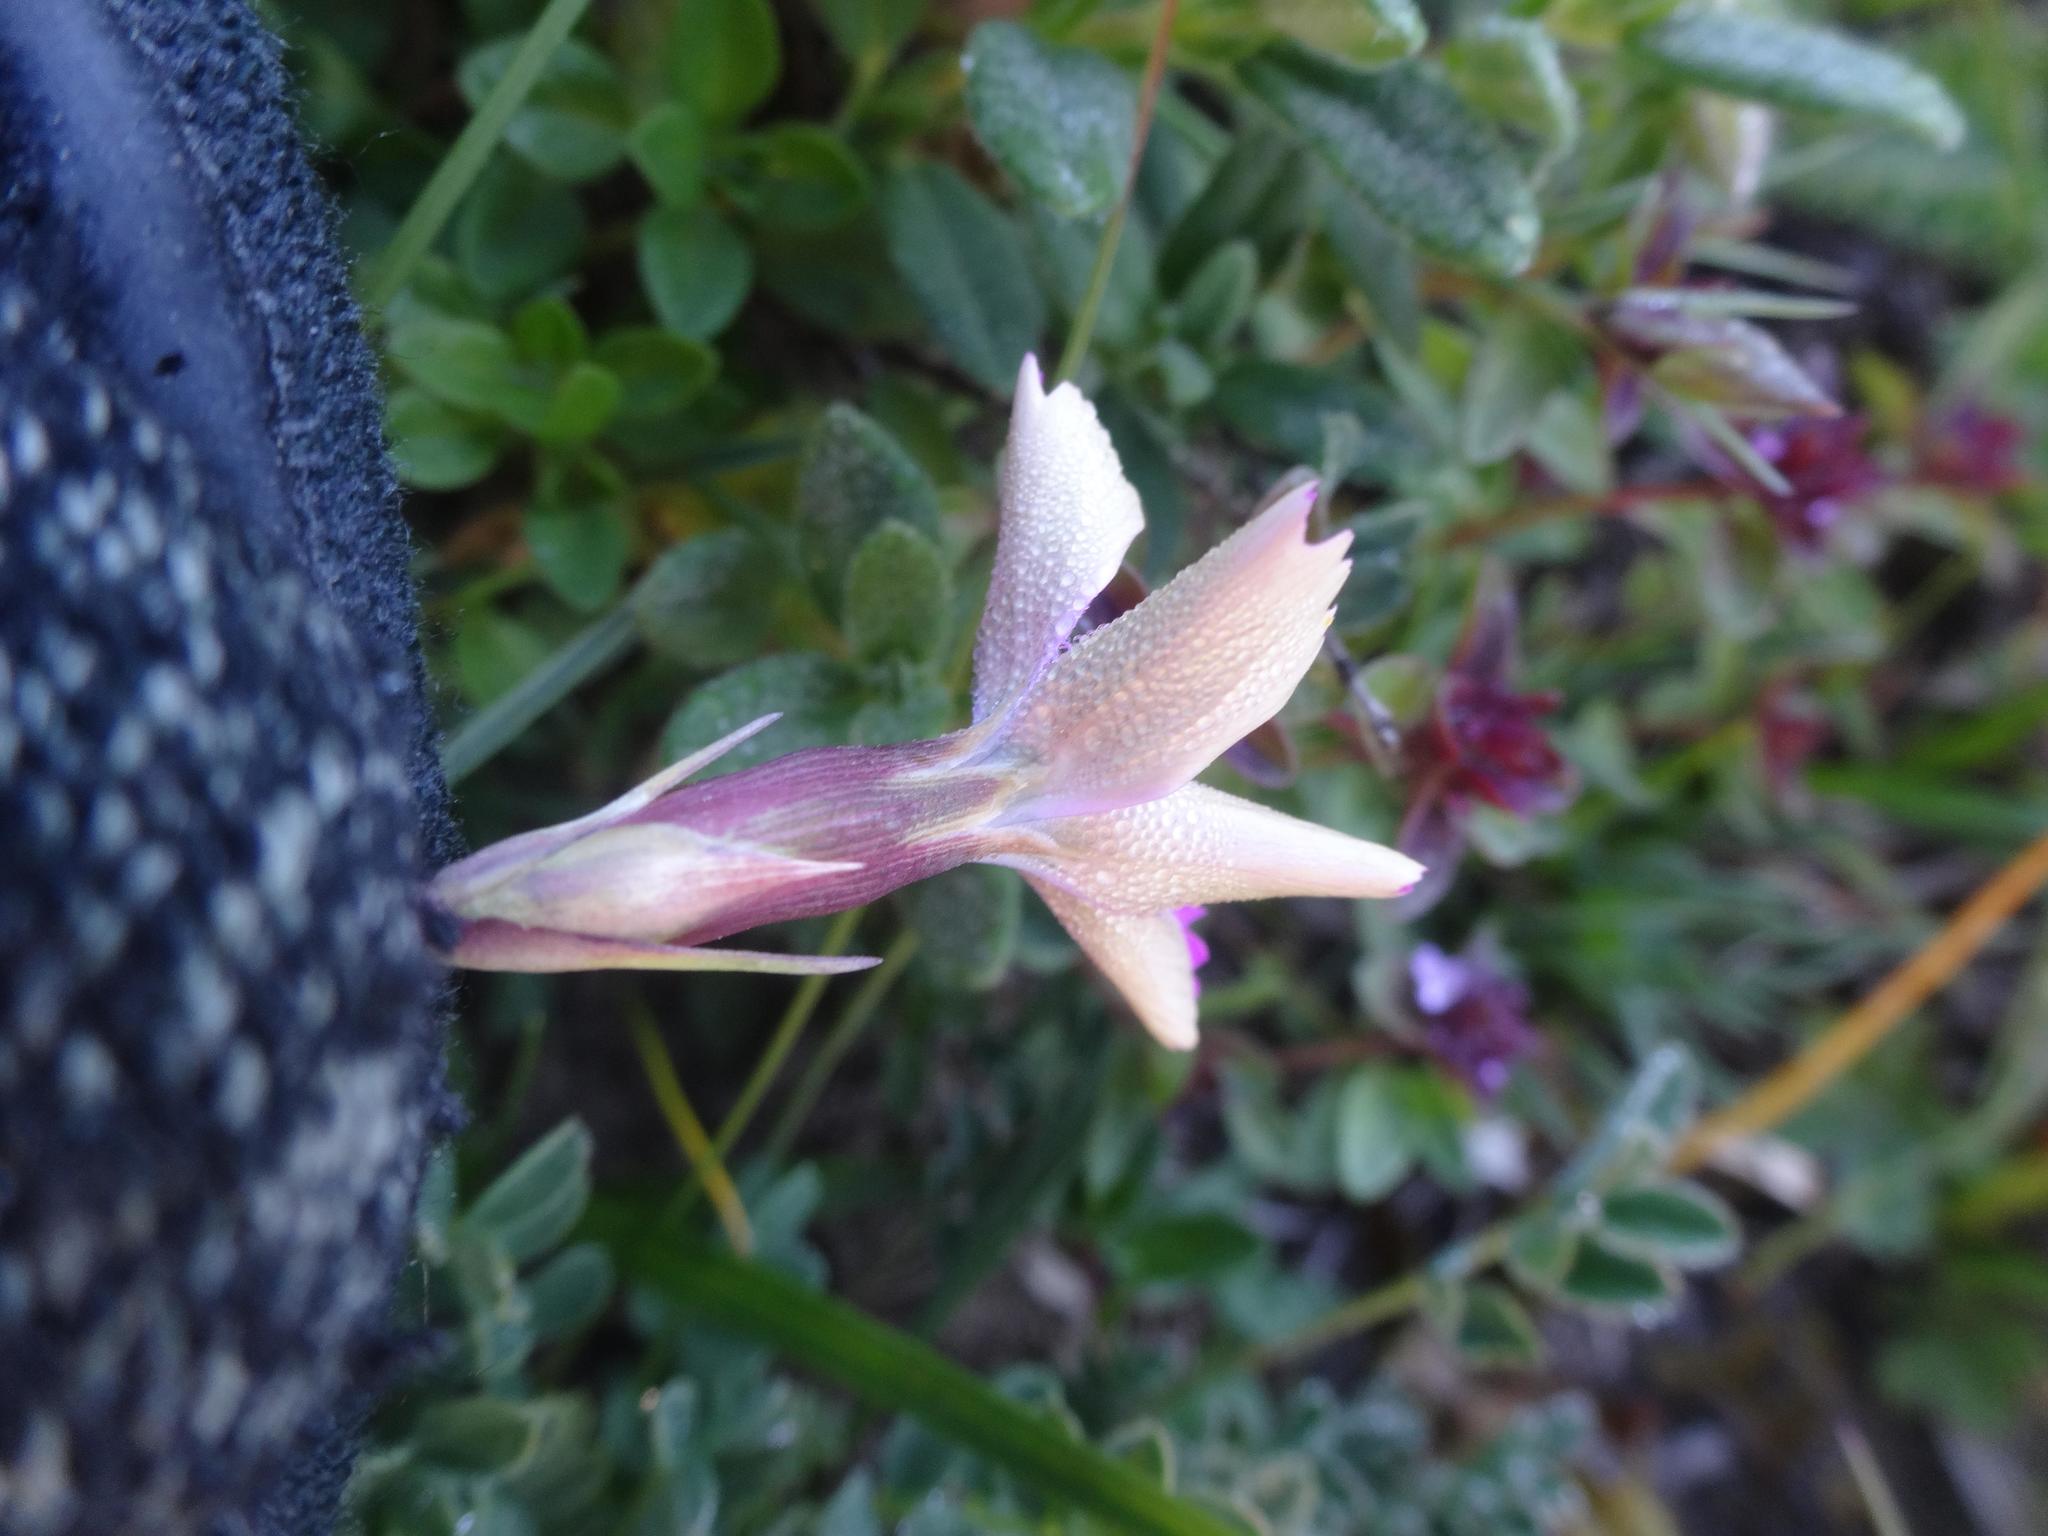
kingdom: Plantae
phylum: Tracheophyta
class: Magnoliopsida
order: Caryophyllales
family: Caryophyllaceae
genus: Dianthus
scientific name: Dianthus pavonius
